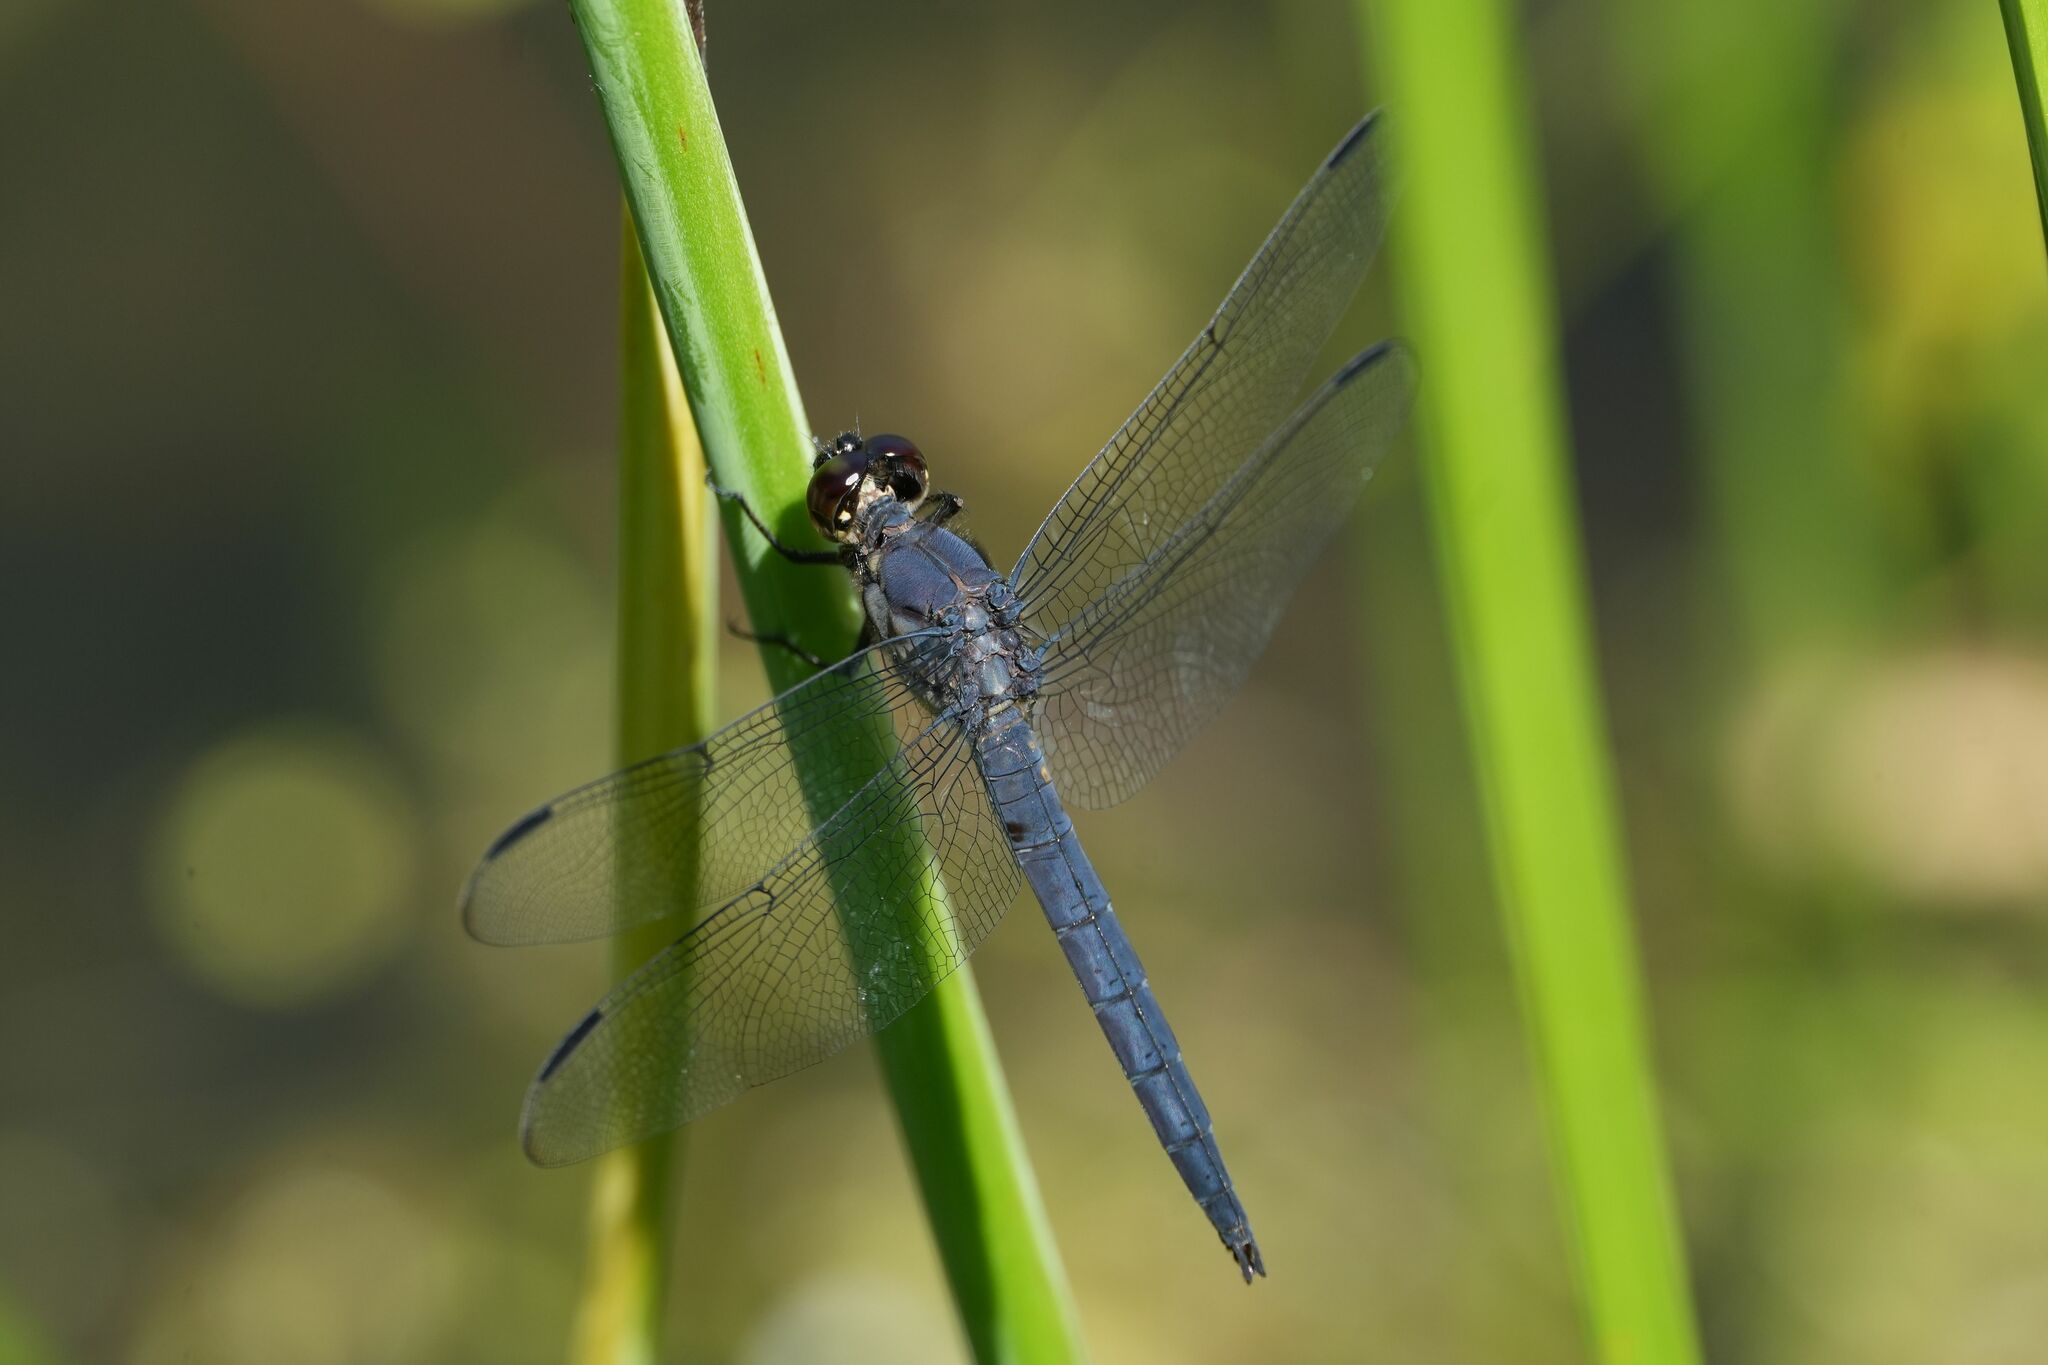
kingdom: Animalia
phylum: Arthropoda
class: Insecta
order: Odonata
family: Libellulidae
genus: Libellula
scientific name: Libellula incesta
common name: Slaty skimmer
